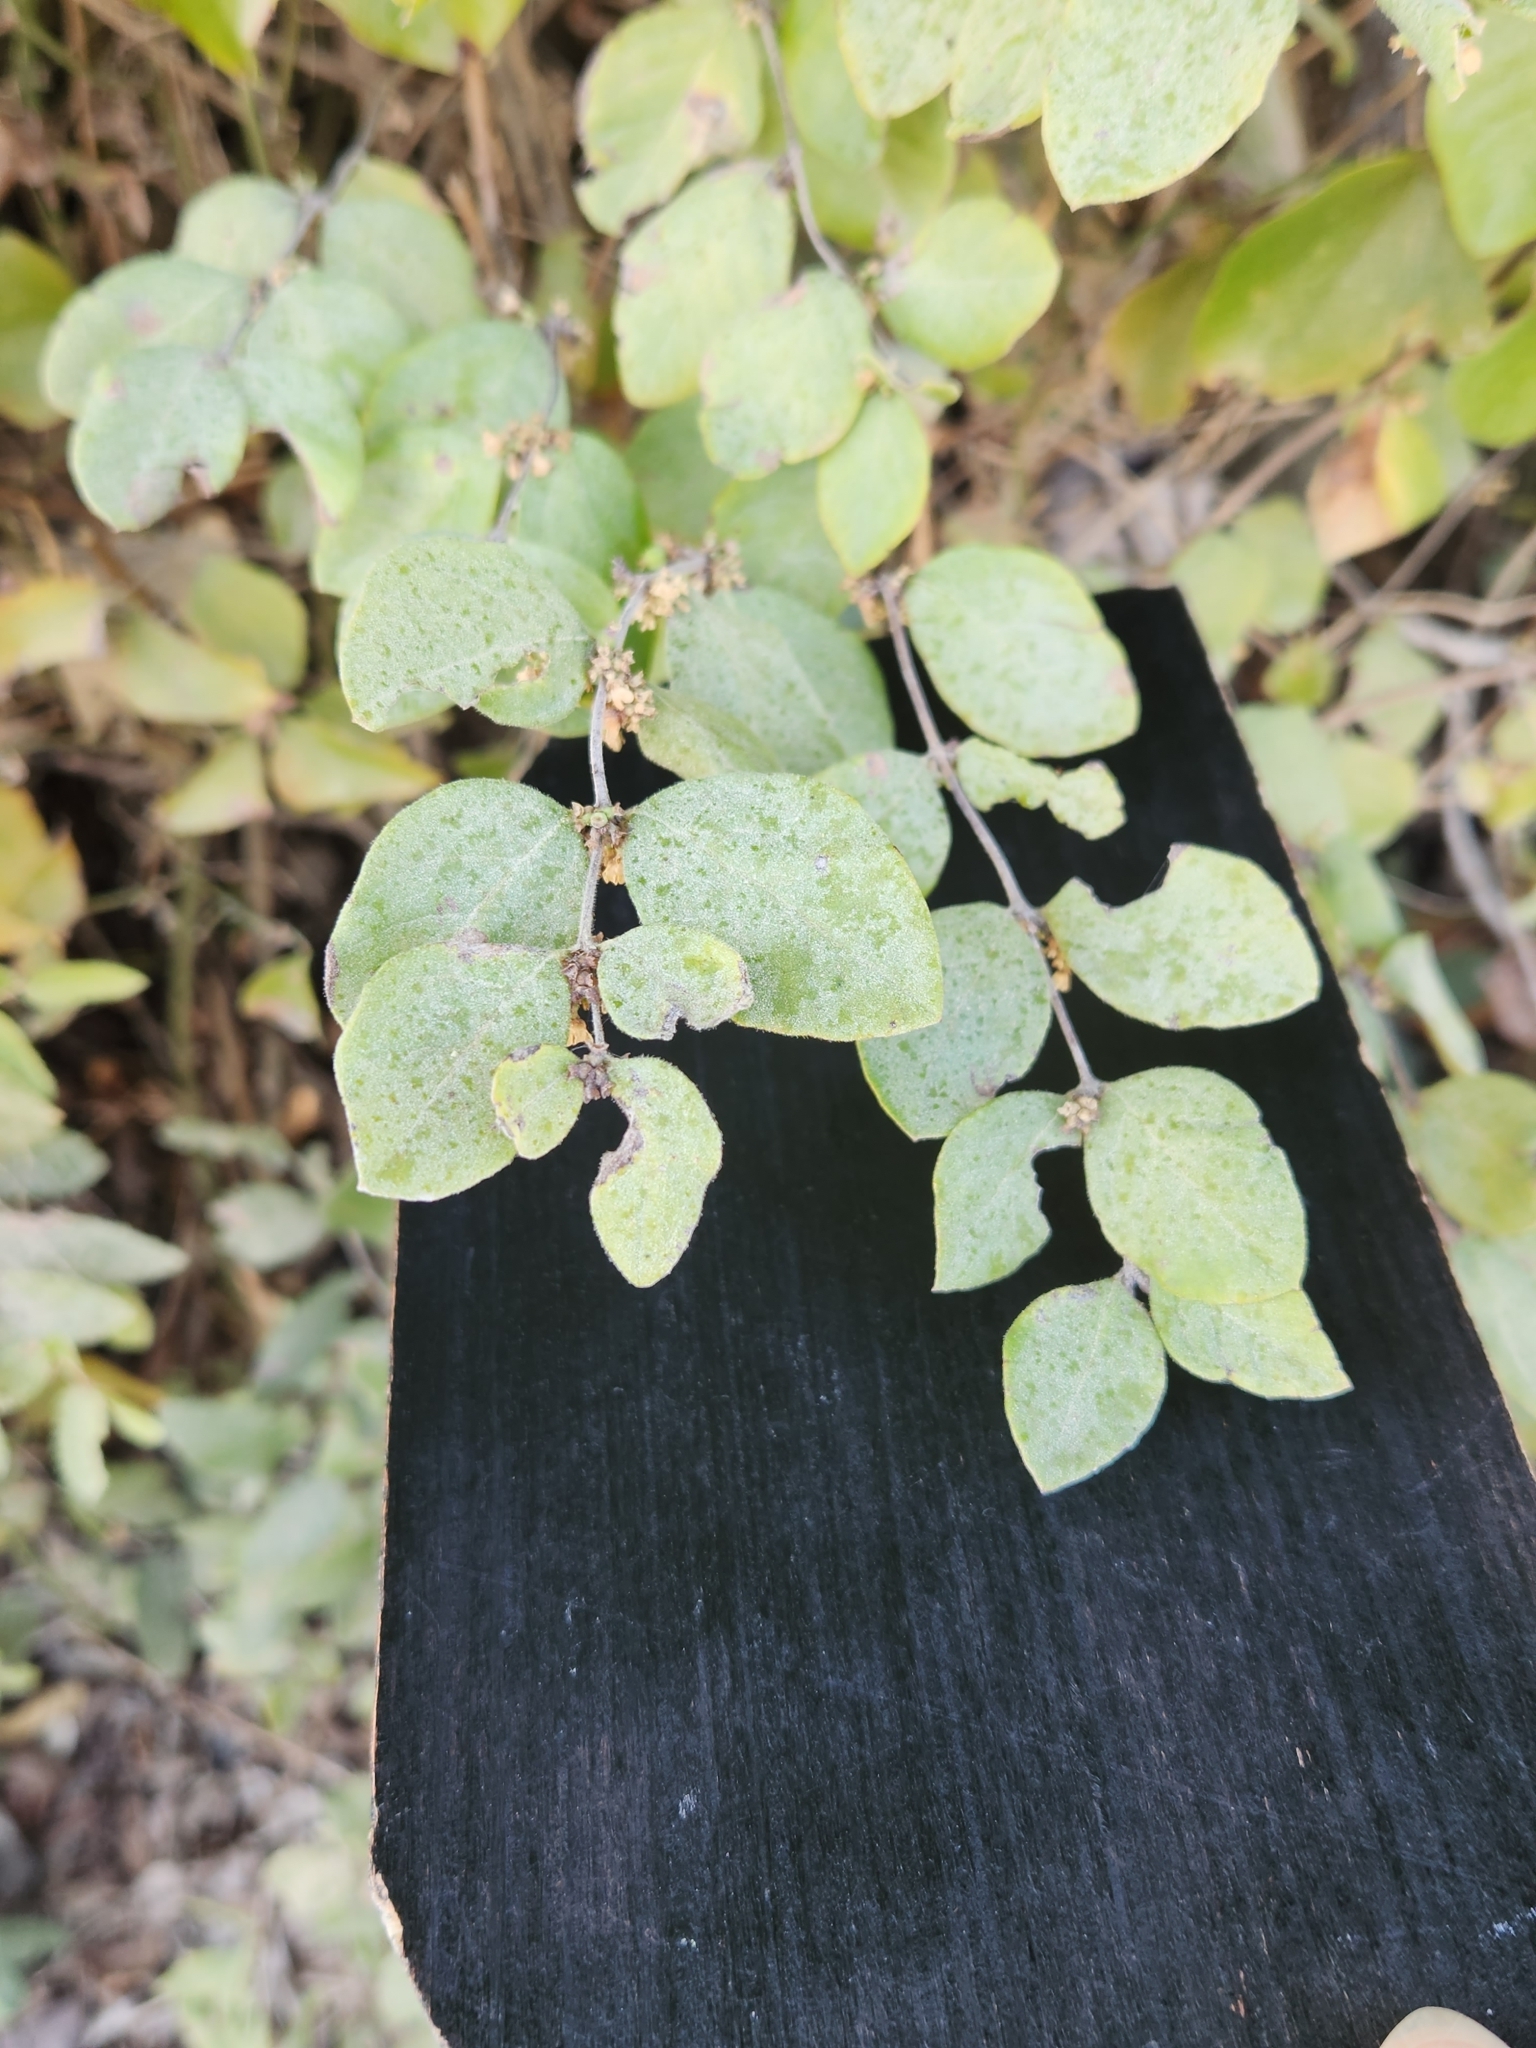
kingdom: Plantae
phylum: Tracheophyta
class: Magnoliopsida
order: Dipsacales
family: Caprifoliaceae
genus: Symphoricarpos
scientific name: Symphoricarpos orbiculatus
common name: Coralberry
